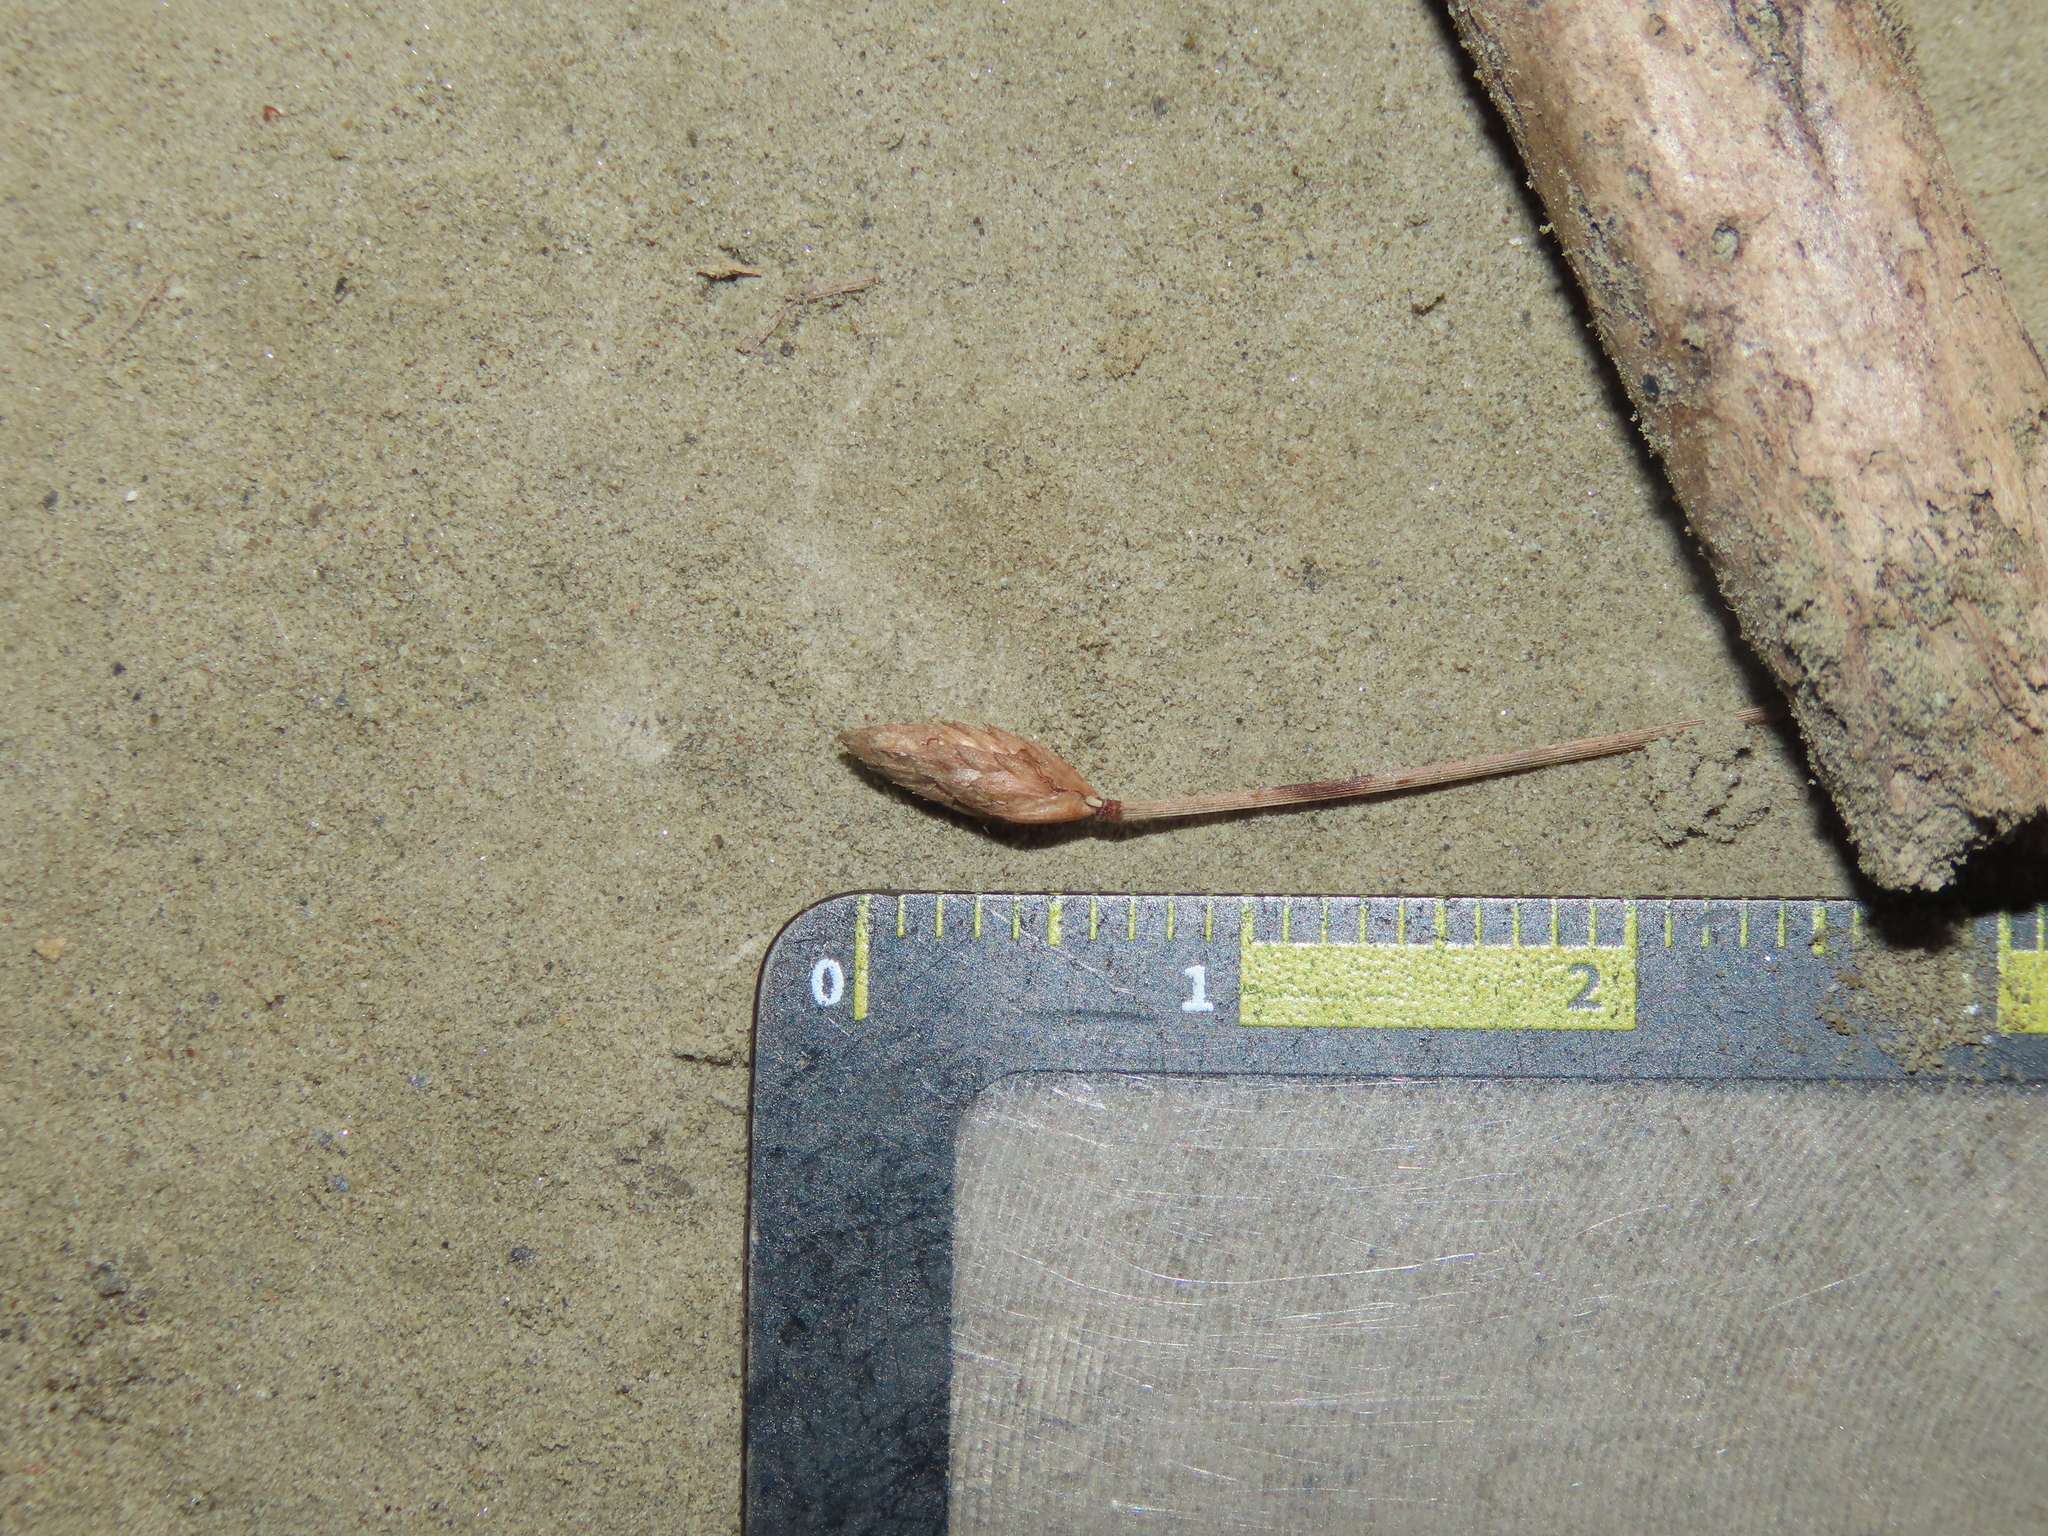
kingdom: Plantae
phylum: Tracheophyta
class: Liliopsida
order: Poales
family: Cyperaceae
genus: Fimbristylis
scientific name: Fimbristylis polytrichoides
